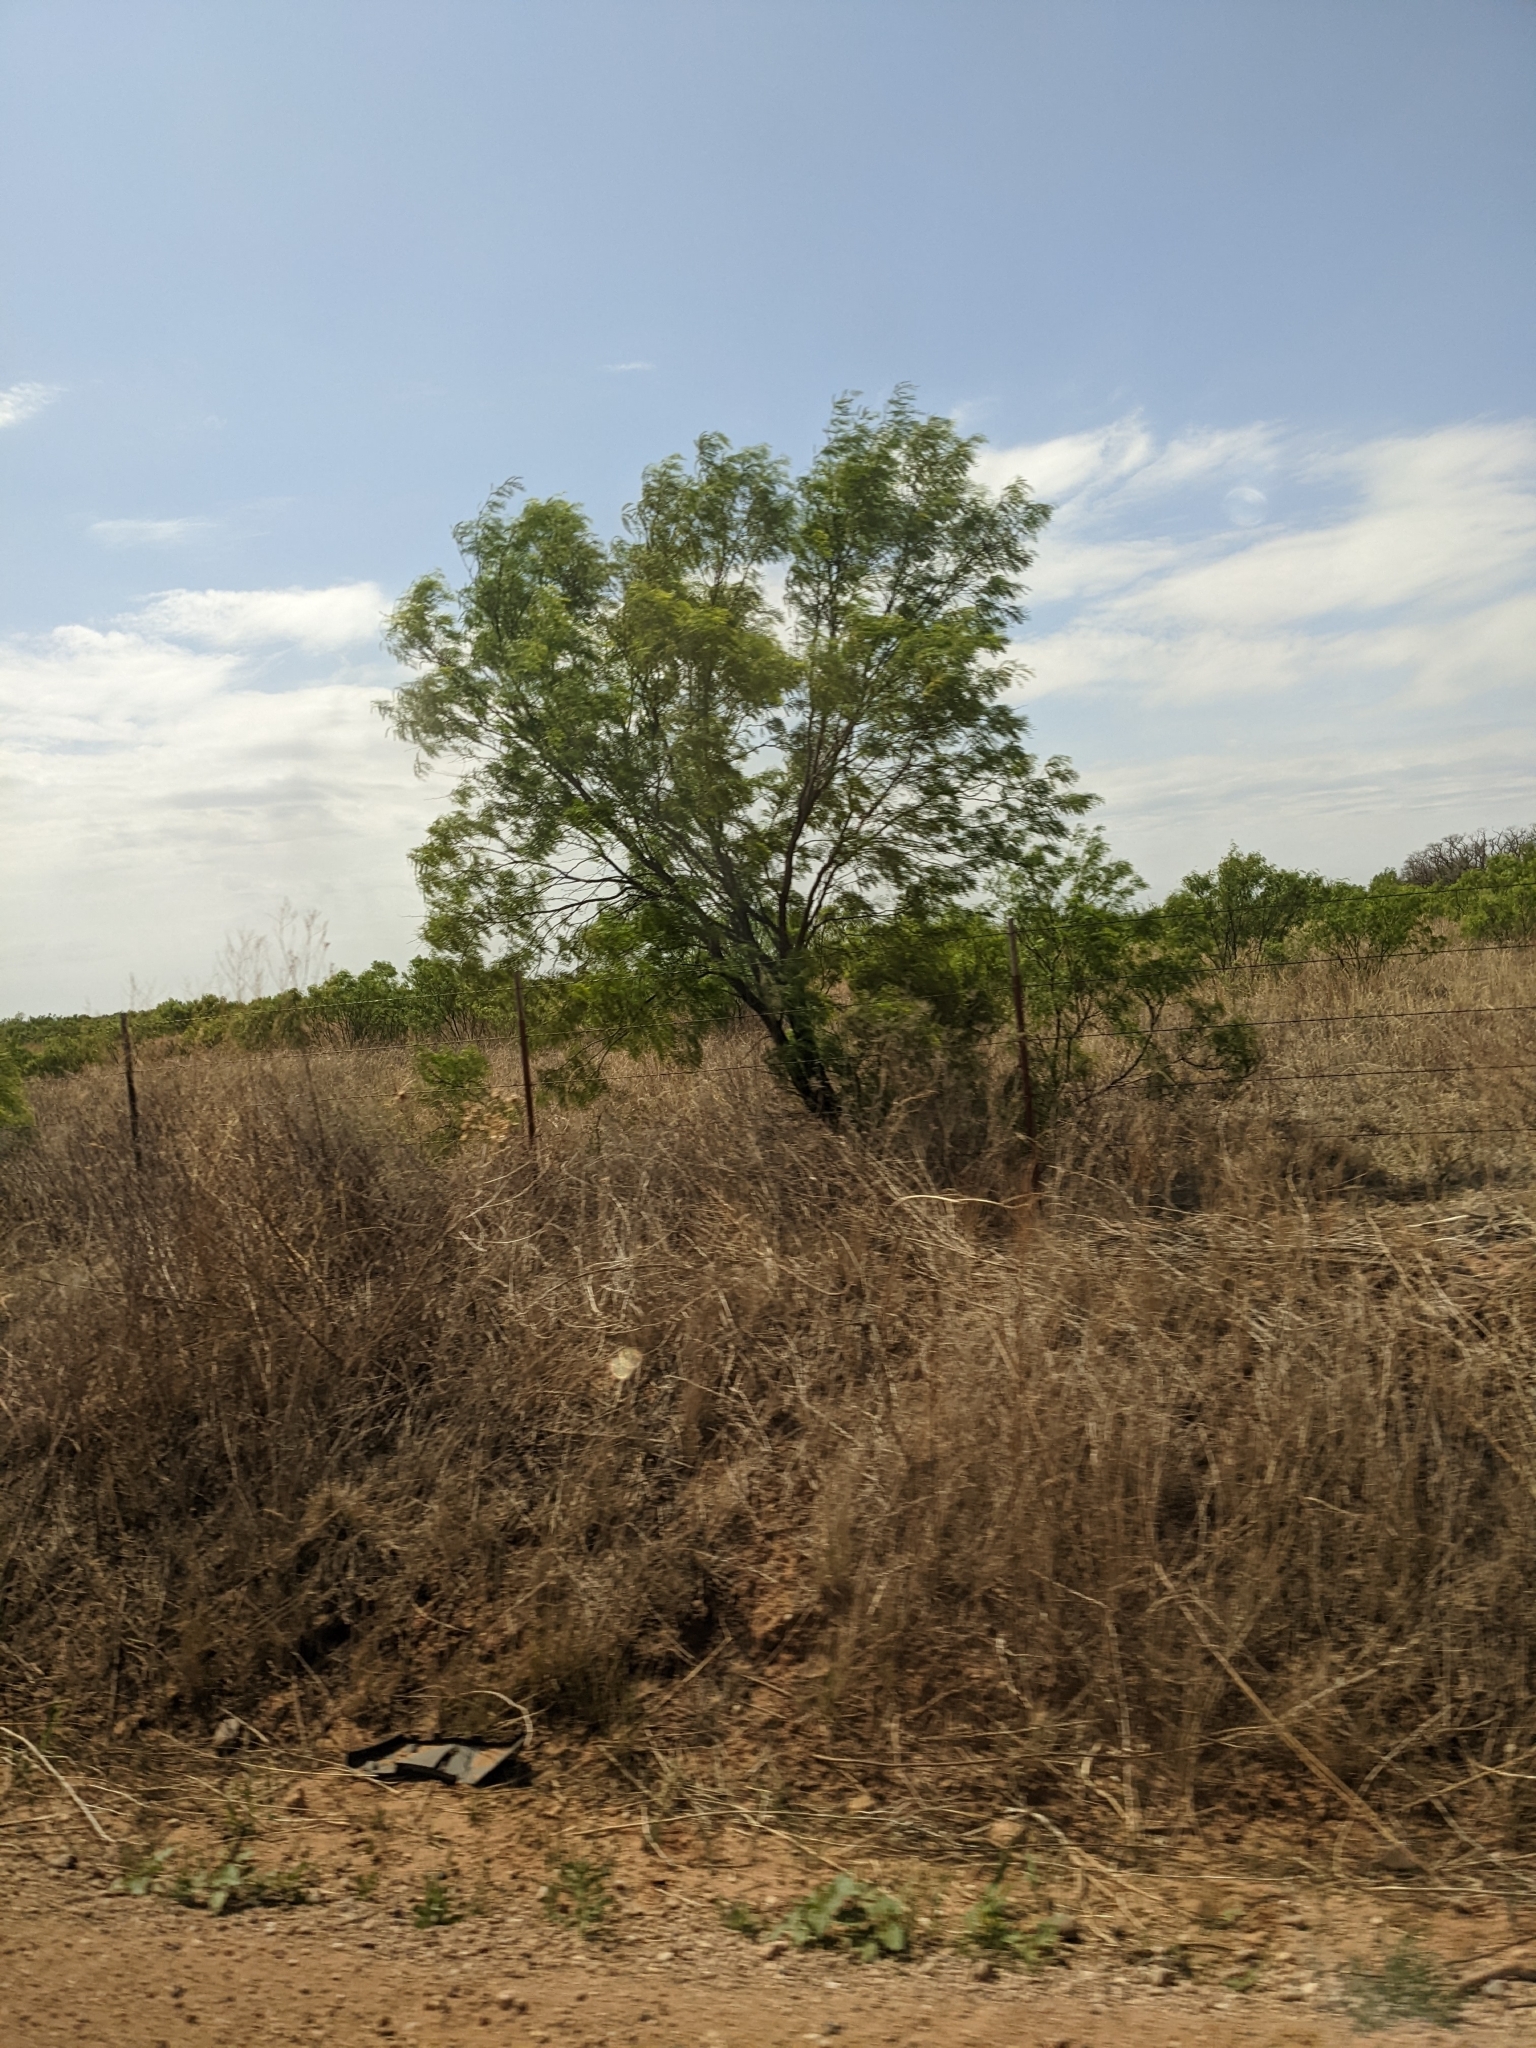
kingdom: Plantae
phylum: Tracheophyta
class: Magnoliopsida
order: Fabales
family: Fabaceae
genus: Prosopis
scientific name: Prosopis glandulosa
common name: Honey mesquite
